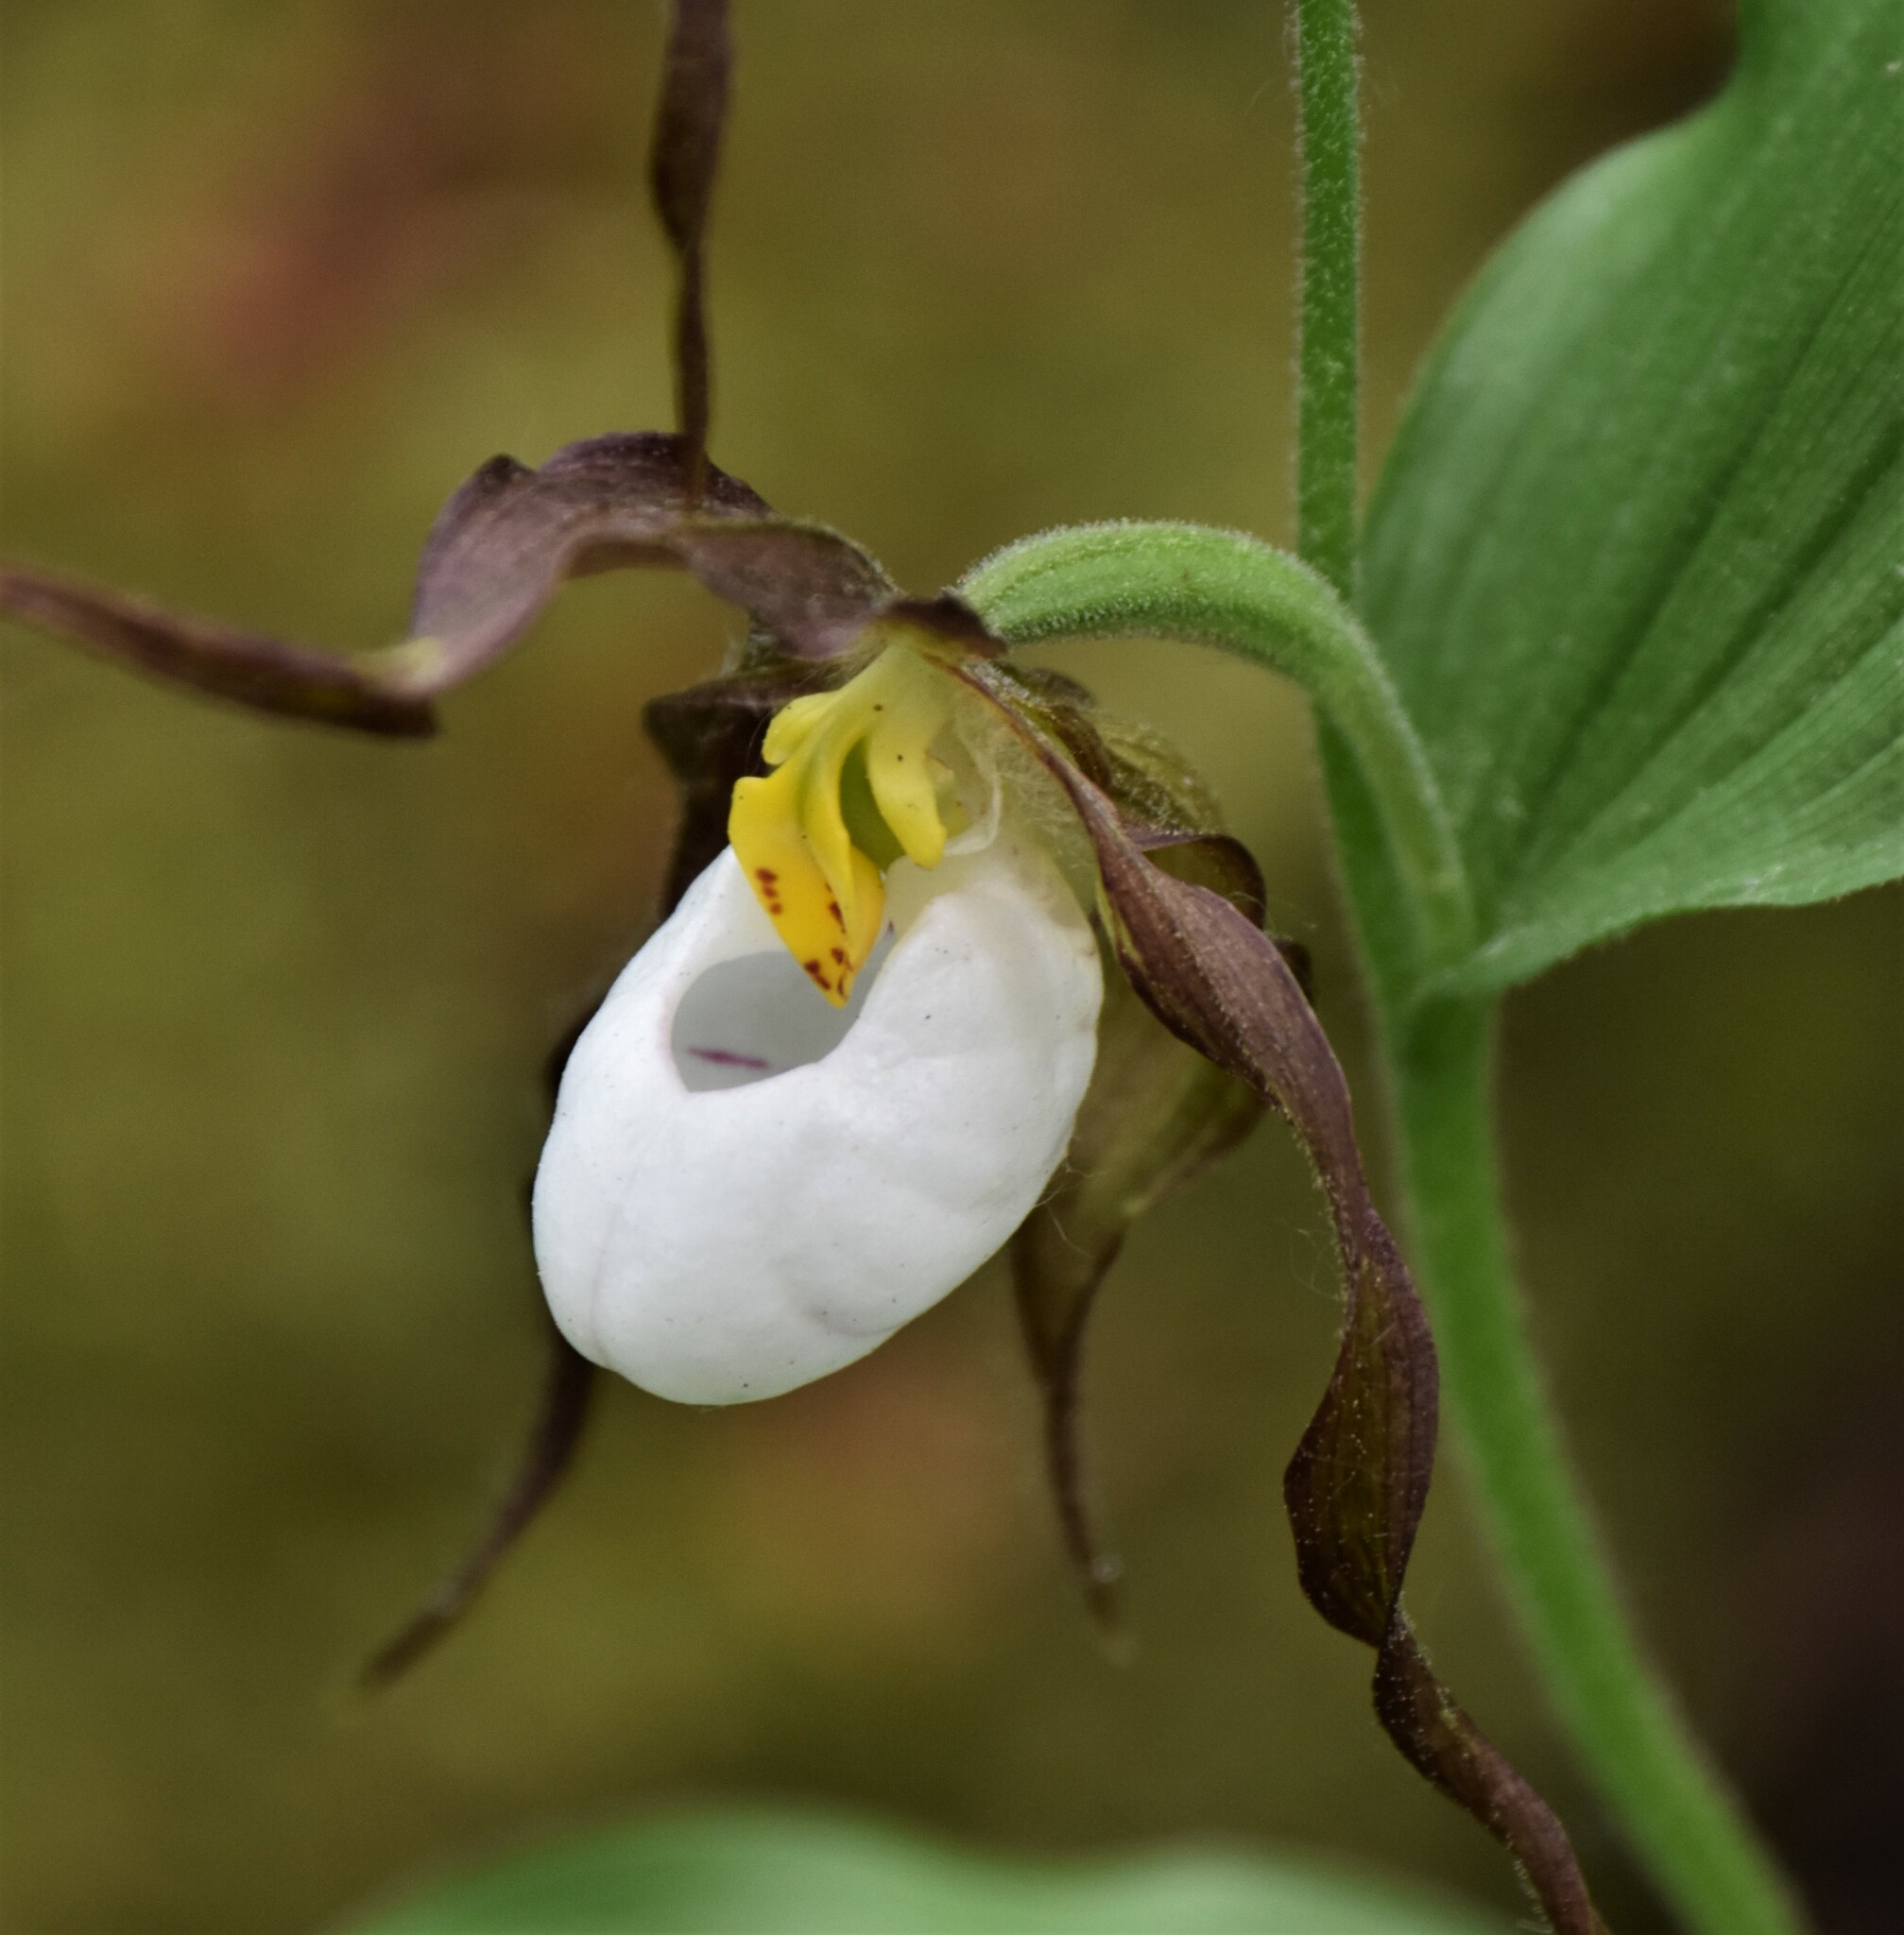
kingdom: Plantae
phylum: Tracheophyta
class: Liliopsida
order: Asparagales
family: Orchidaceae
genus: Cypripedium
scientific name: Cypripedium montanum
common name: Mountain lady's-slipper
